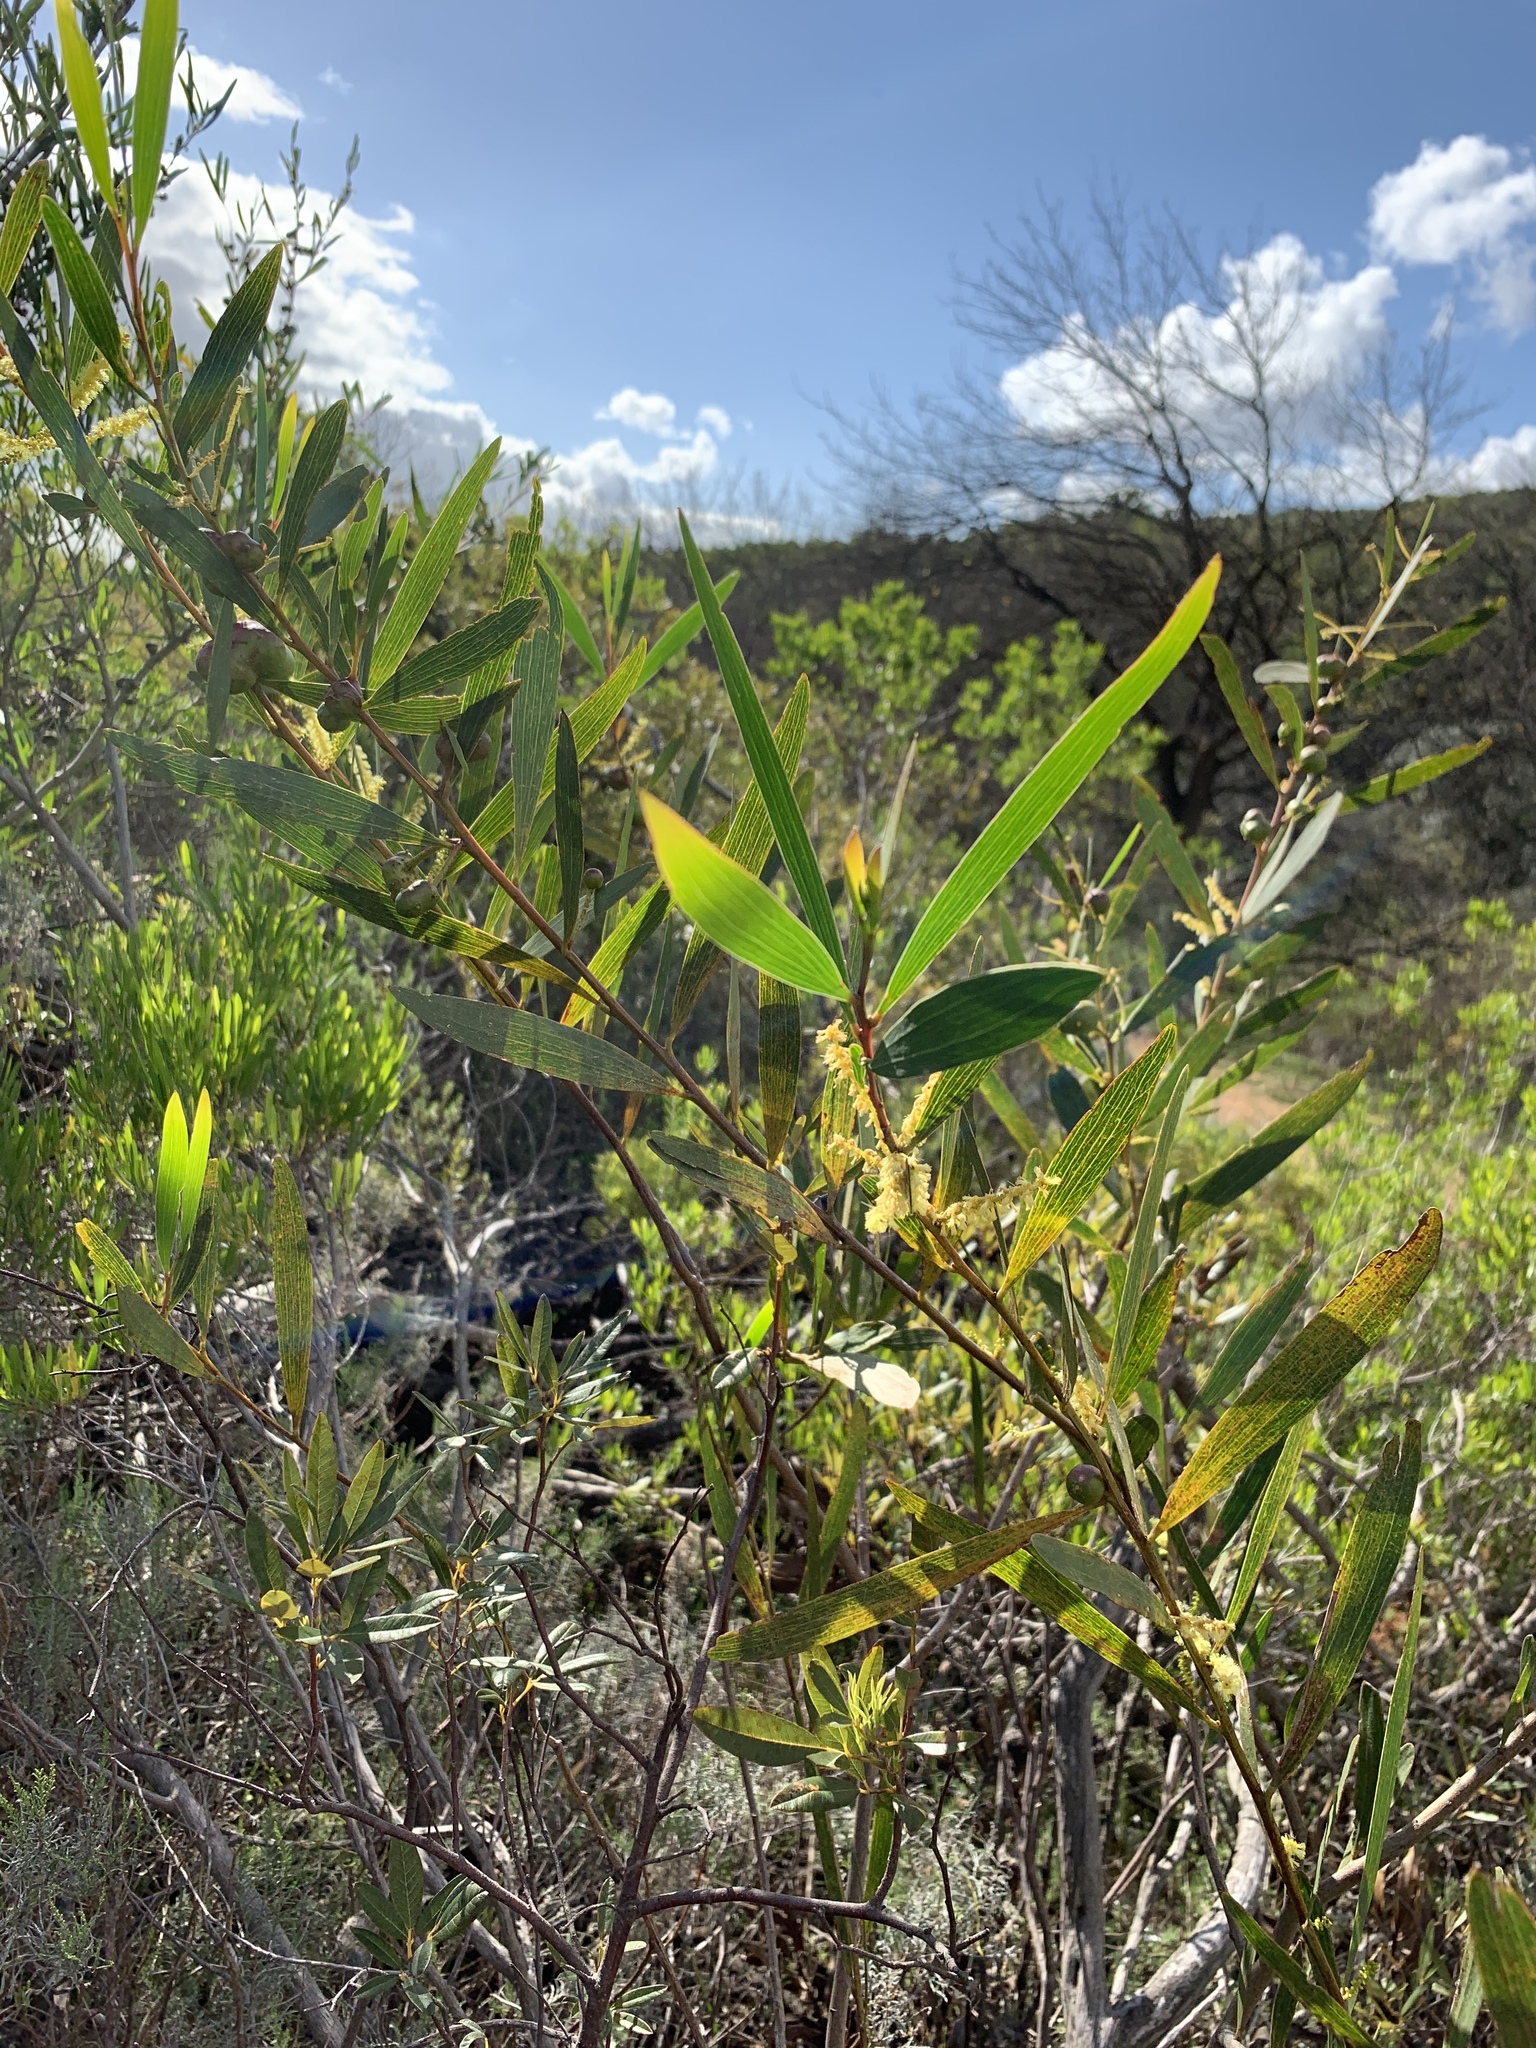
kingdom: Plantae
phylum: Tracheophyta
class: Magnoliopsida
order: Fabales
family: Fabaceae
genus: Acacia
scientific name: Acacia longifolia
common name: Sydney golden wattle
